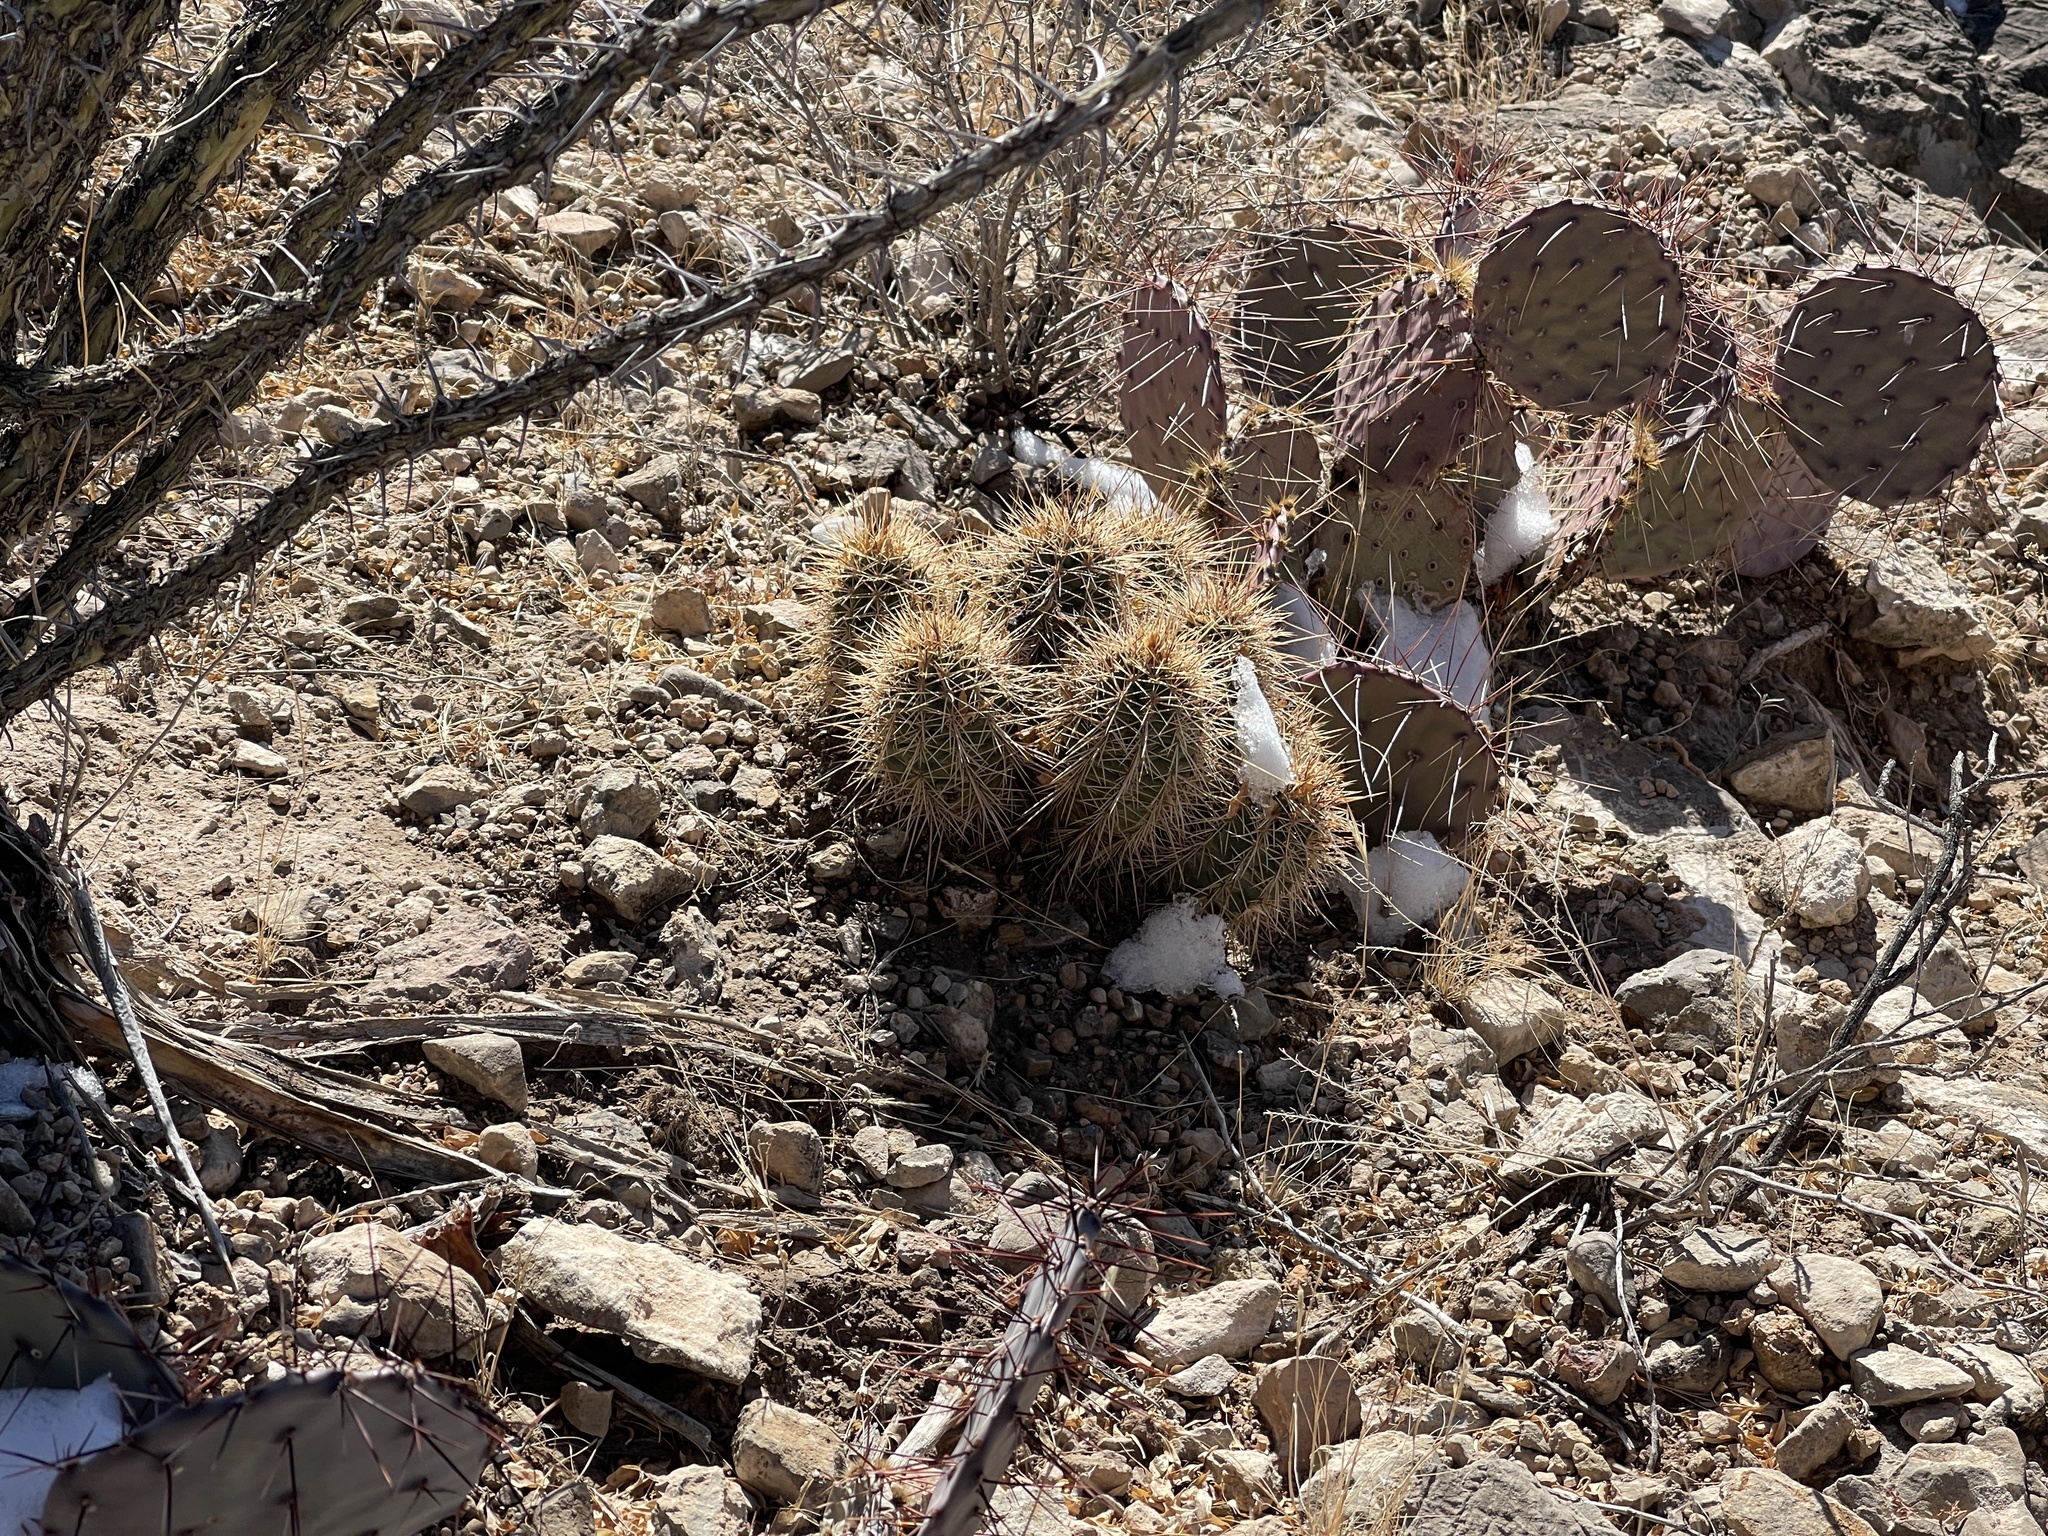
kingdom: Plantae
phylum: Tracheophyta
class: Magnoliopsida
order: Caryophyllales
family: Cactaceae
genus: Echinocereus
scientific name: Echinocereus coccineus
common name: Scarlet hedgehog cactus
